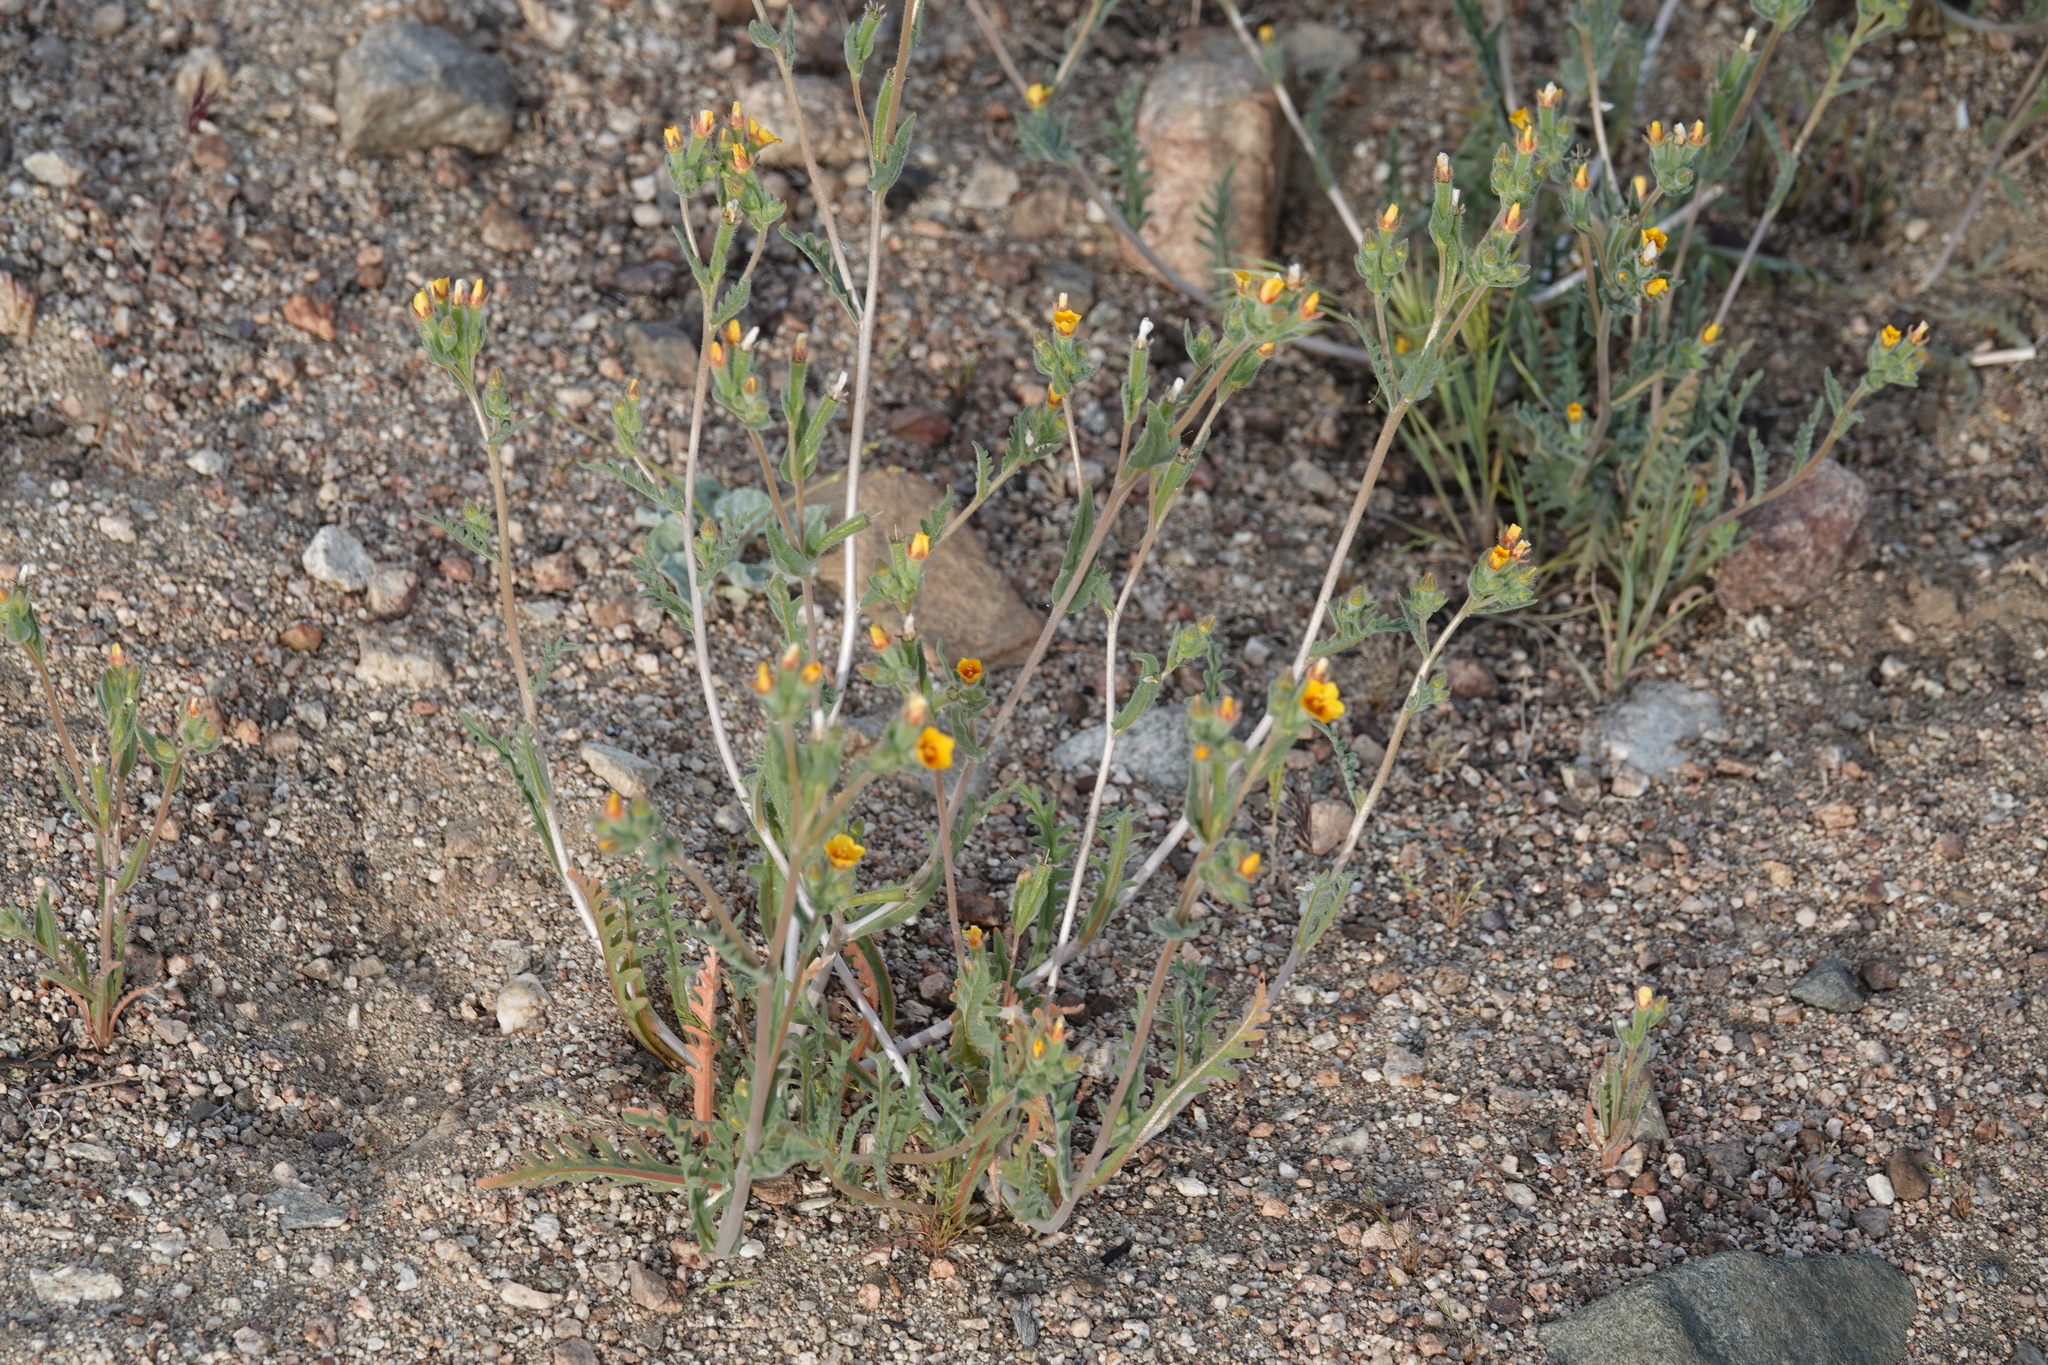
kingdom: Plantae
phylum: Tracheophyta
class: Magnoliopsida
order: Cornales
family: Loasaceae
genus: Mentzelia
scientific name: Mentzelia albicaulis
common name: White-stem blazingstar
